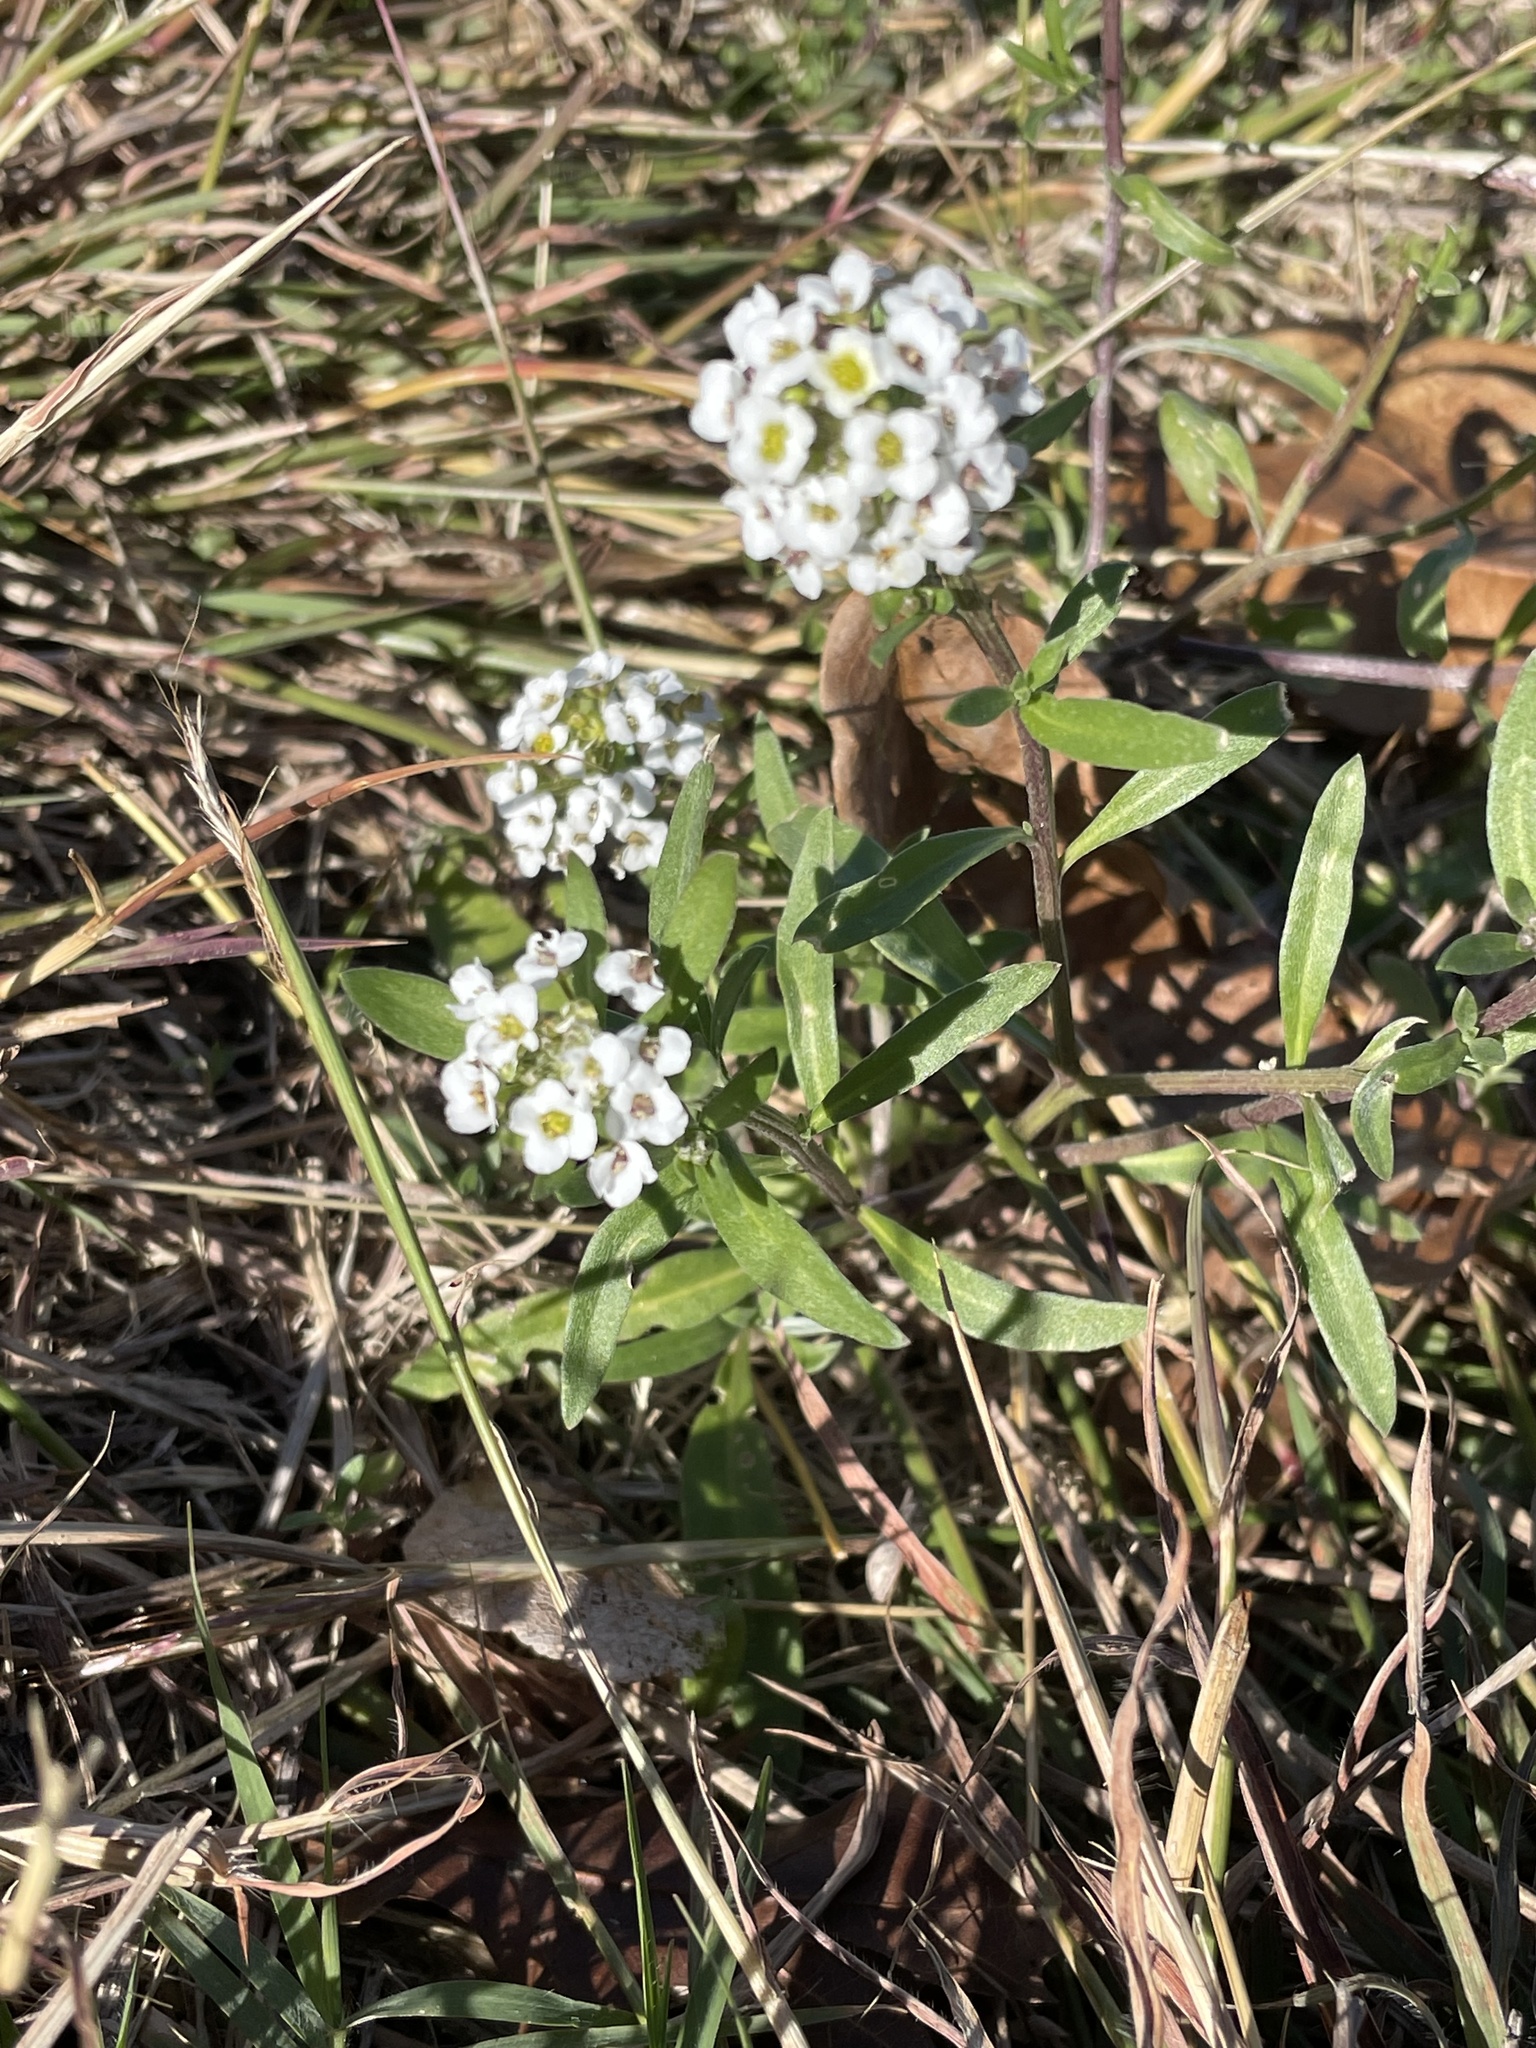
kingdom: Plantae
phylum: Tracheophyta
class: Magnoliopsida
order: Brassicales
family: Brassicaceae
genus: Lobularia
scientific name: Lobularia maritima
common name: Sweet alison
